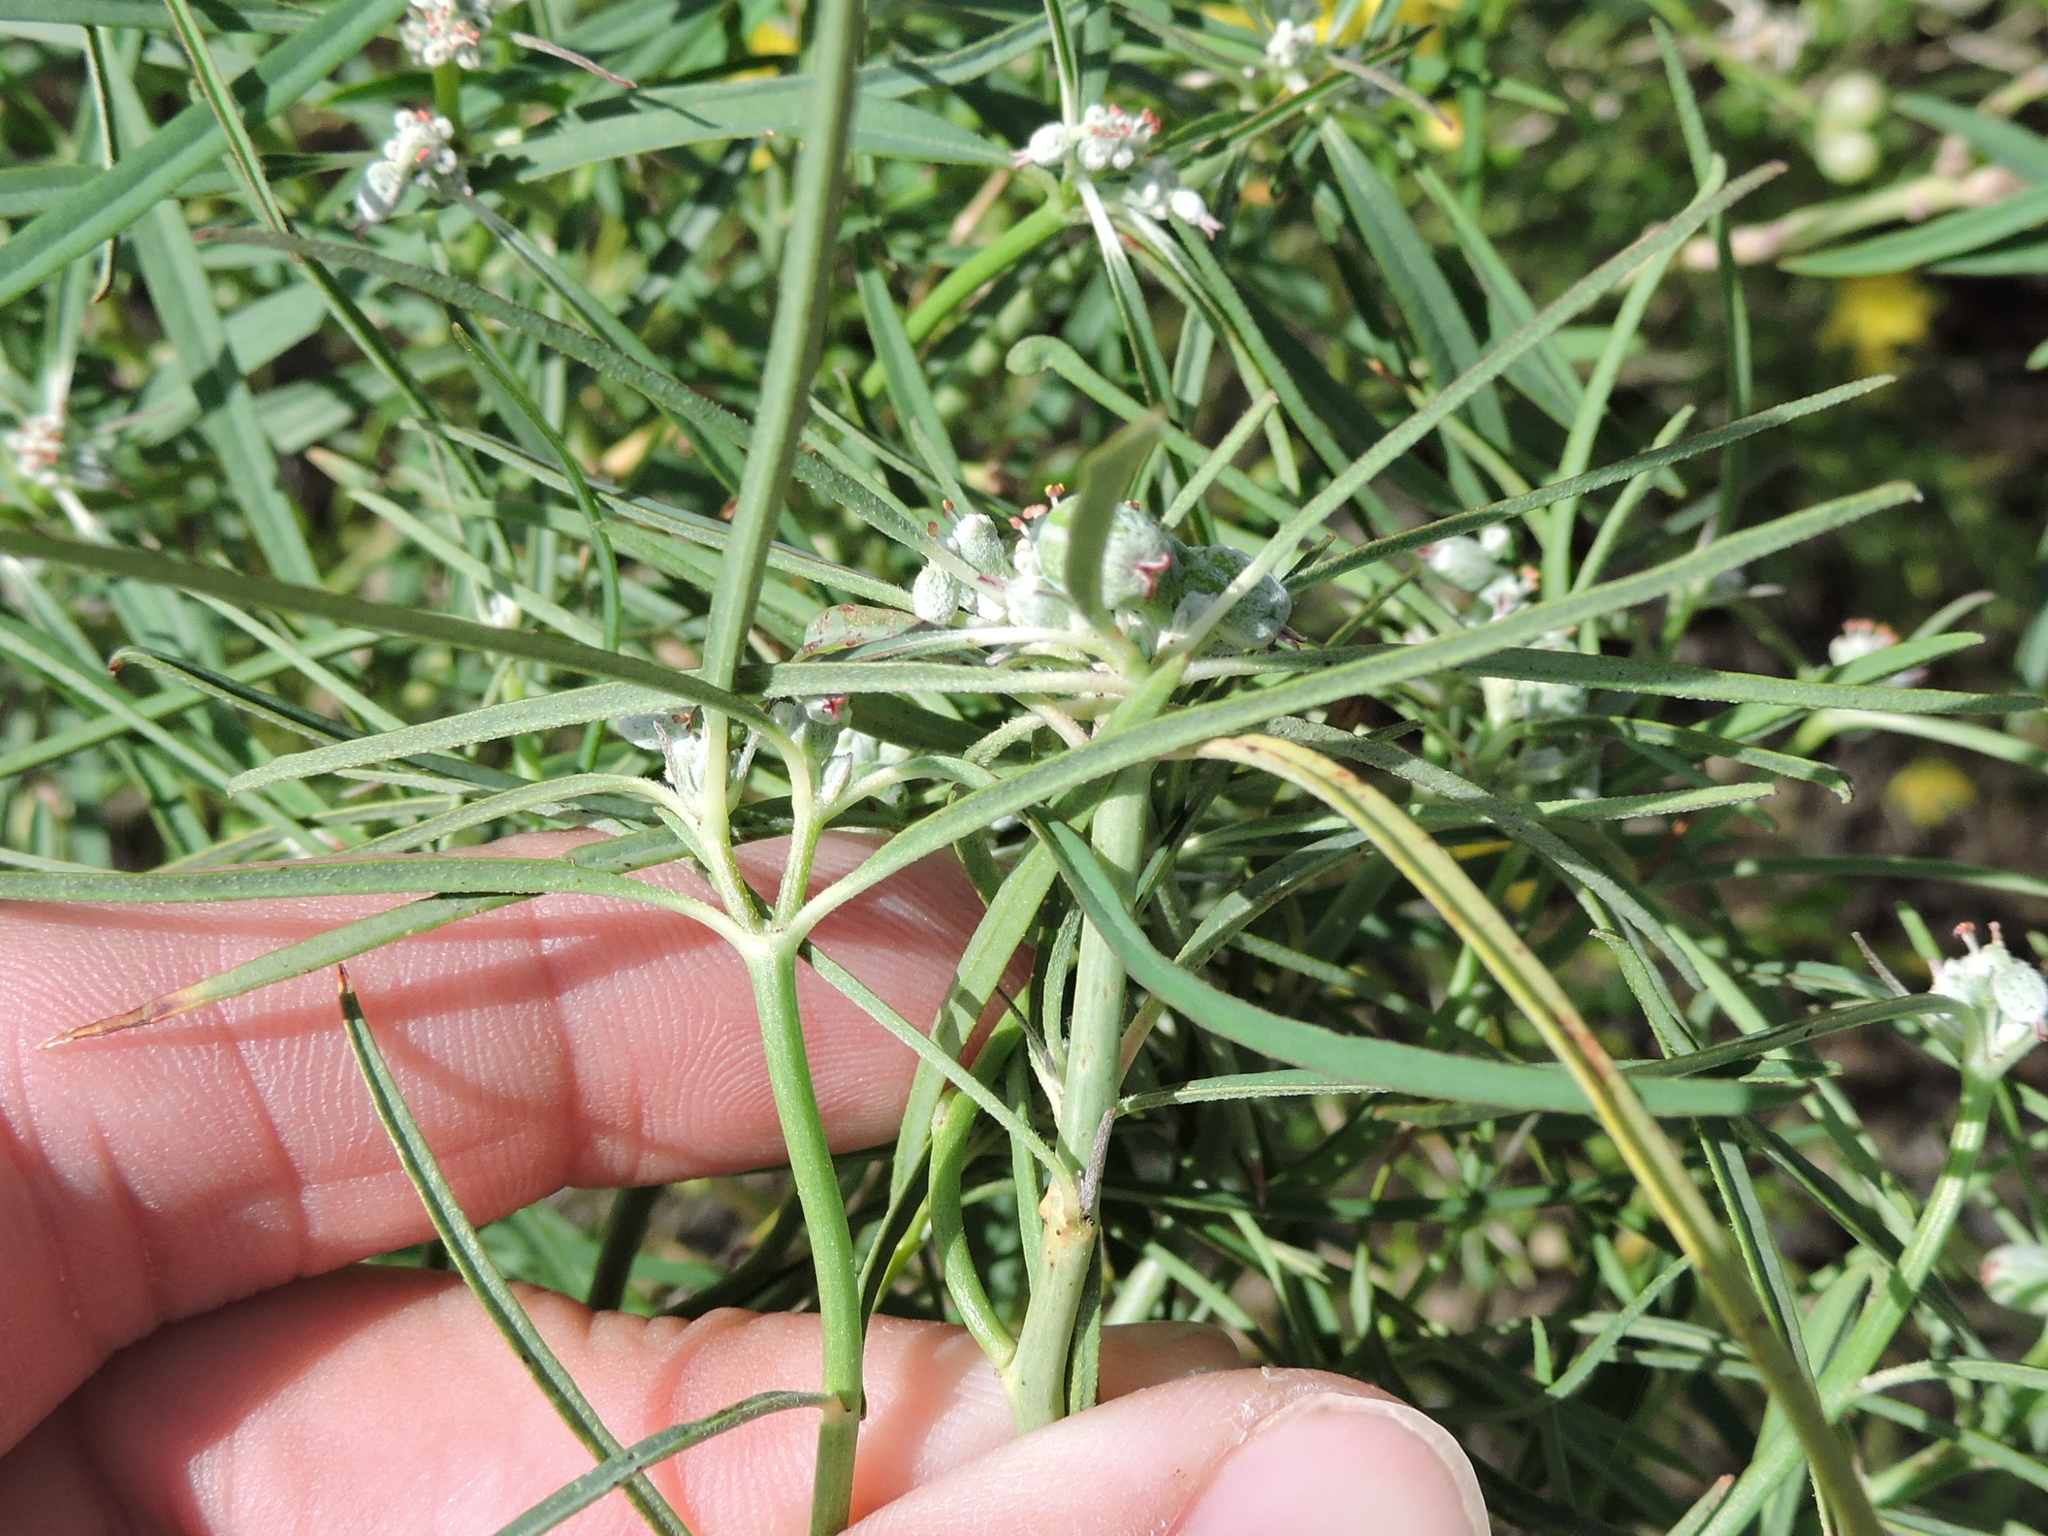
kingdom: Plantae
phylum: Tracheophyta
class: Magnoliopsida
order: Malpighiales
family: Euphorbiaceae
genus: Euphorbia
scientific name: Euphorbia eriantha
